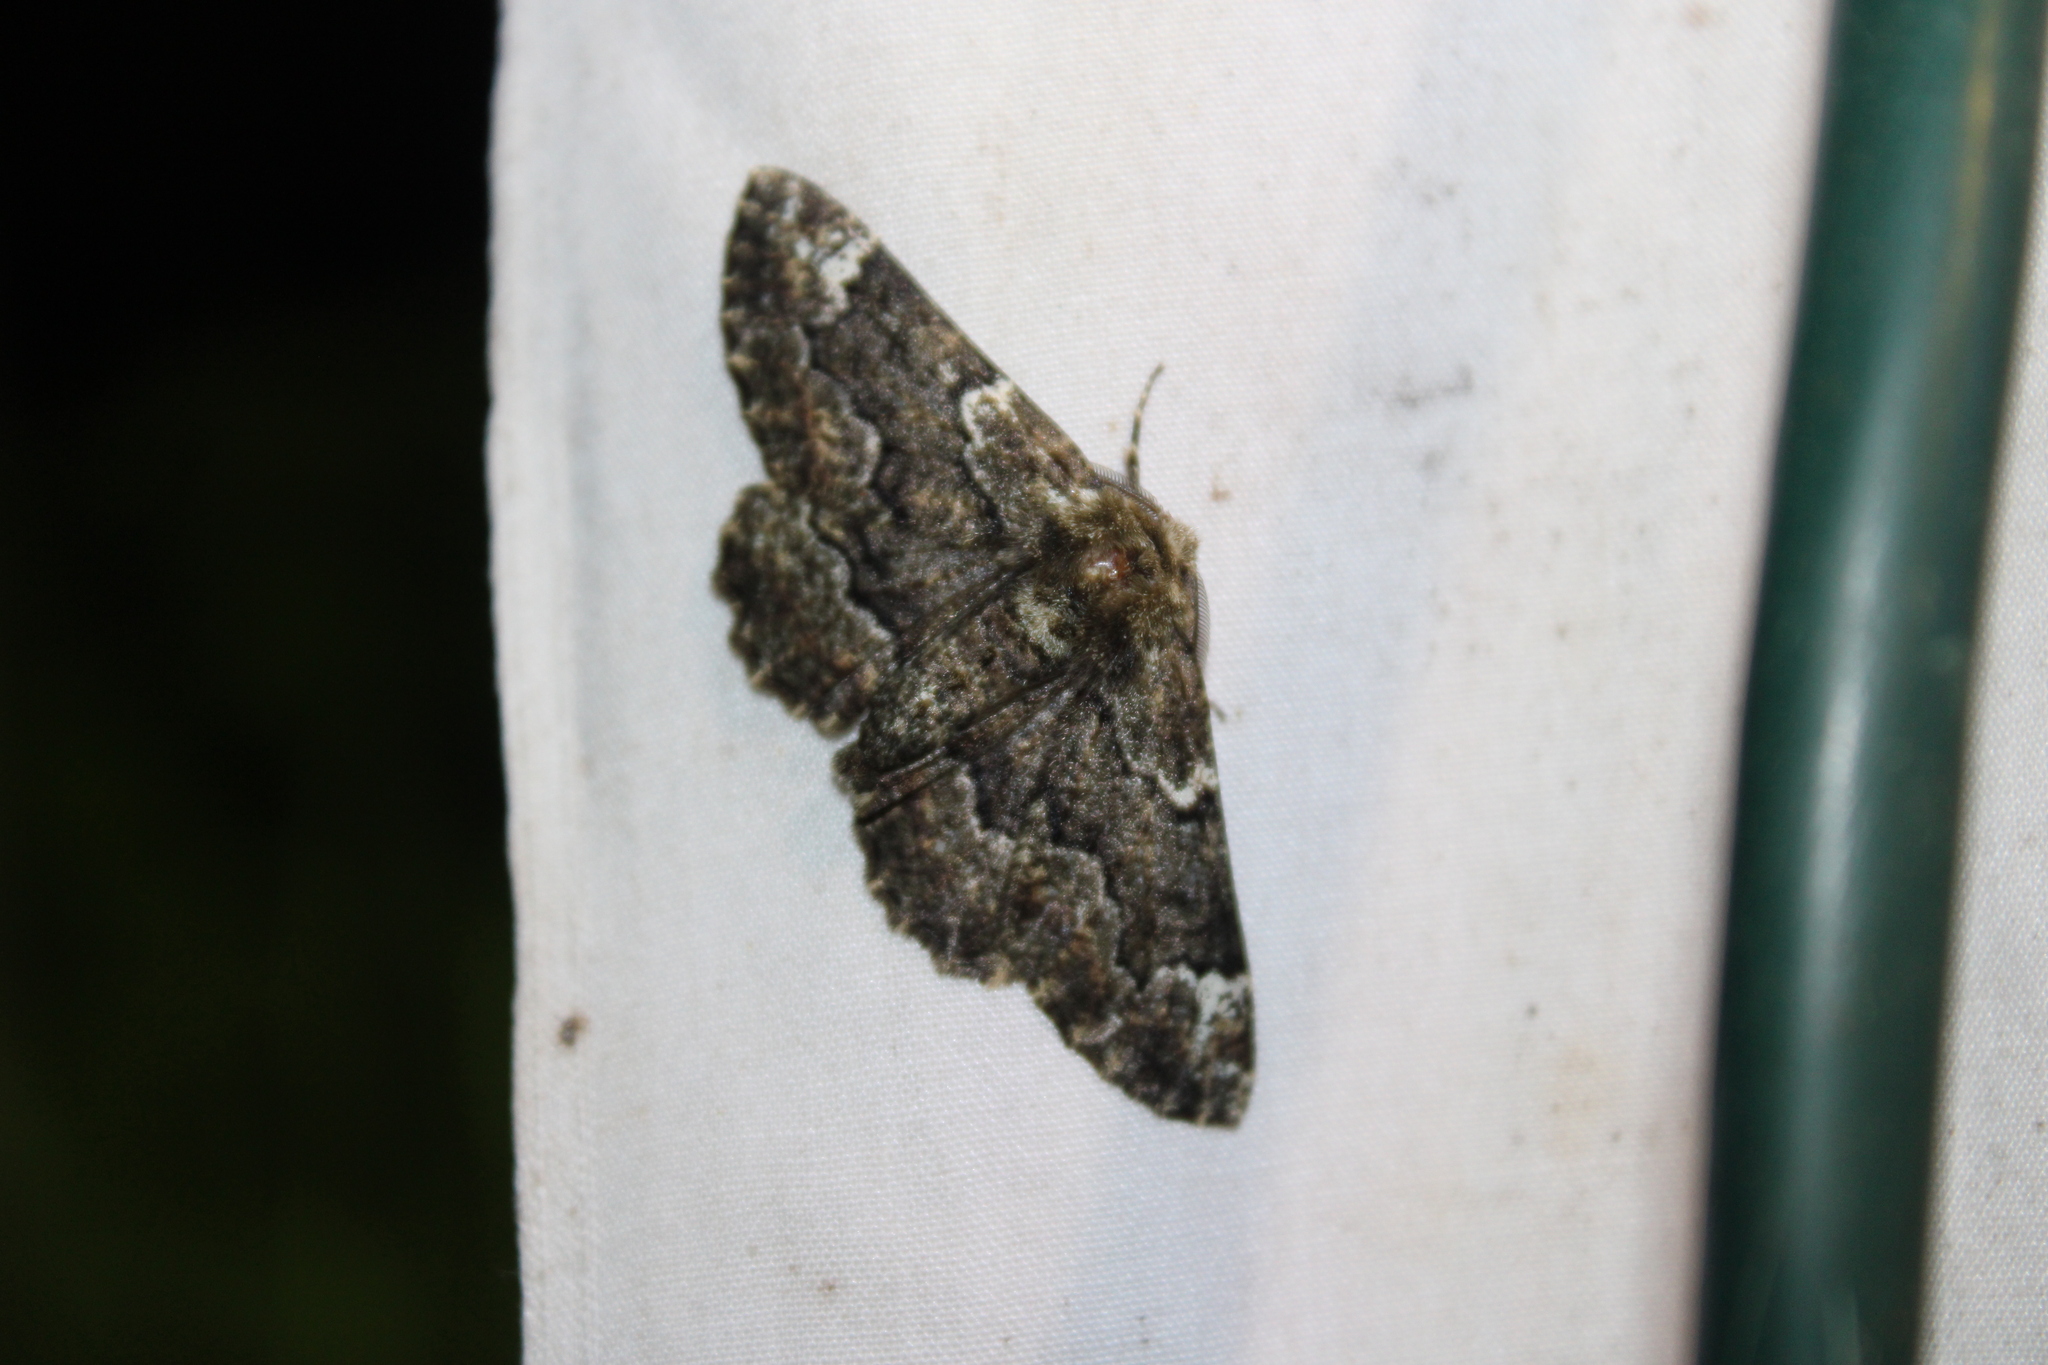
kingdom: Animalia
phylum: Arthropoda
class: Insecta
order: Lepidoptera
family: Geometridae
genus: Phaeoura
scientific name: Phaeoura quernaria
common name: Oak beauty
